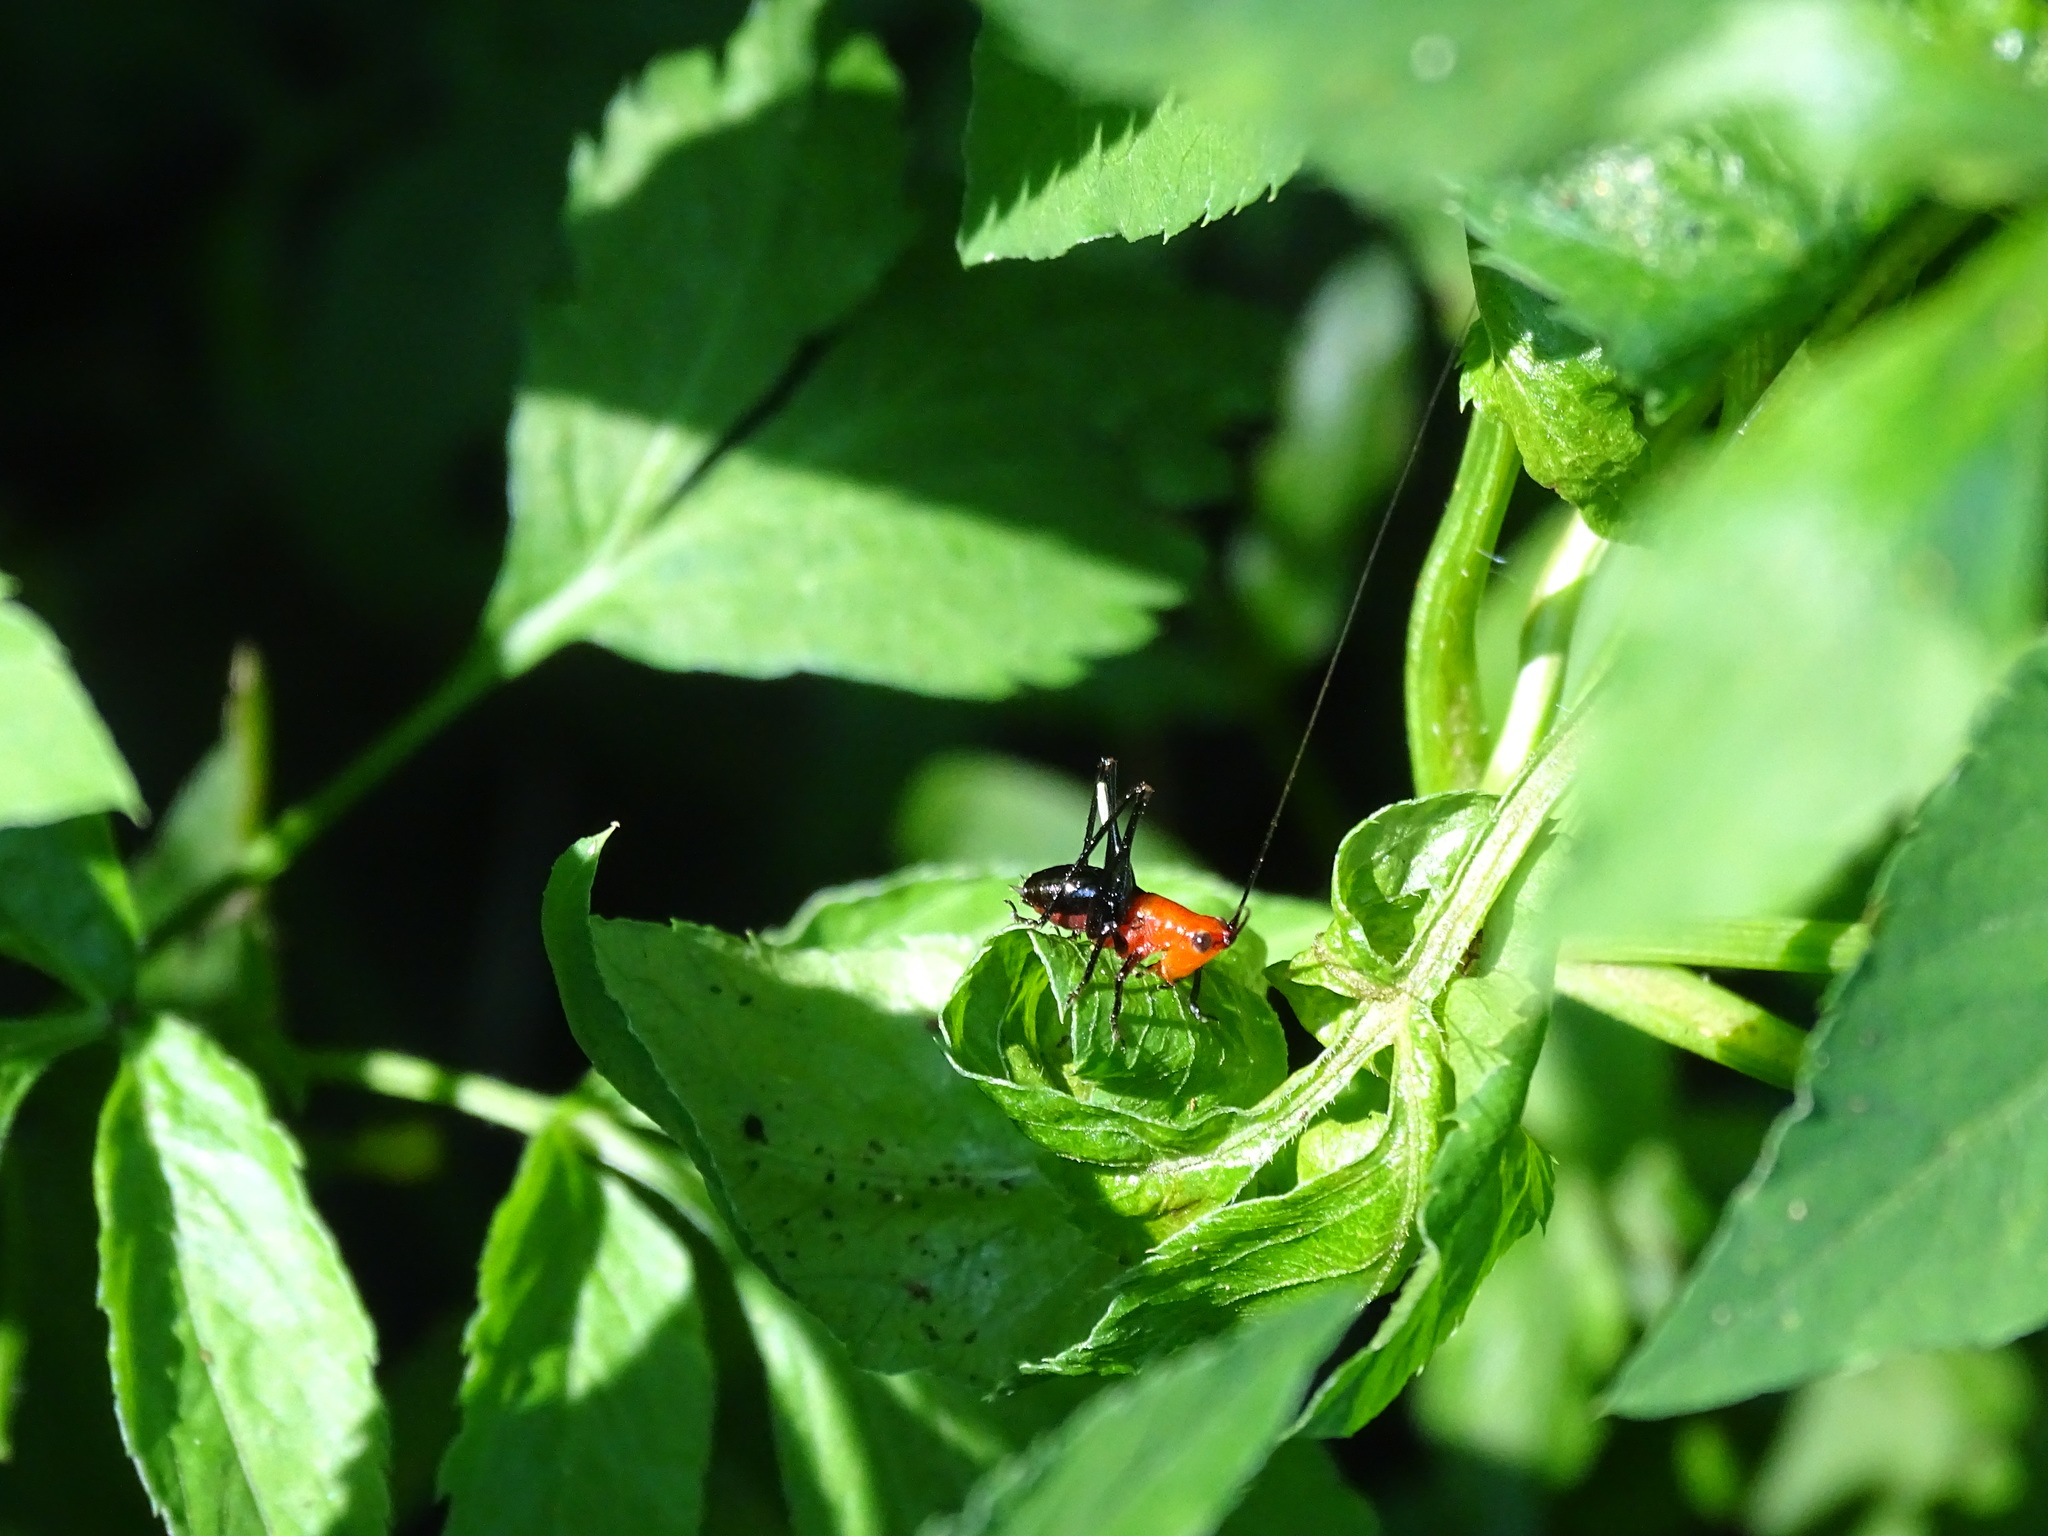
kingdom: Animalia
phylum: Arthropoda
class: Insecta
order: Orthoptera
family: Tettigoniidae
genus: Conocephalus
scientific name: Conocephalus melaenus
